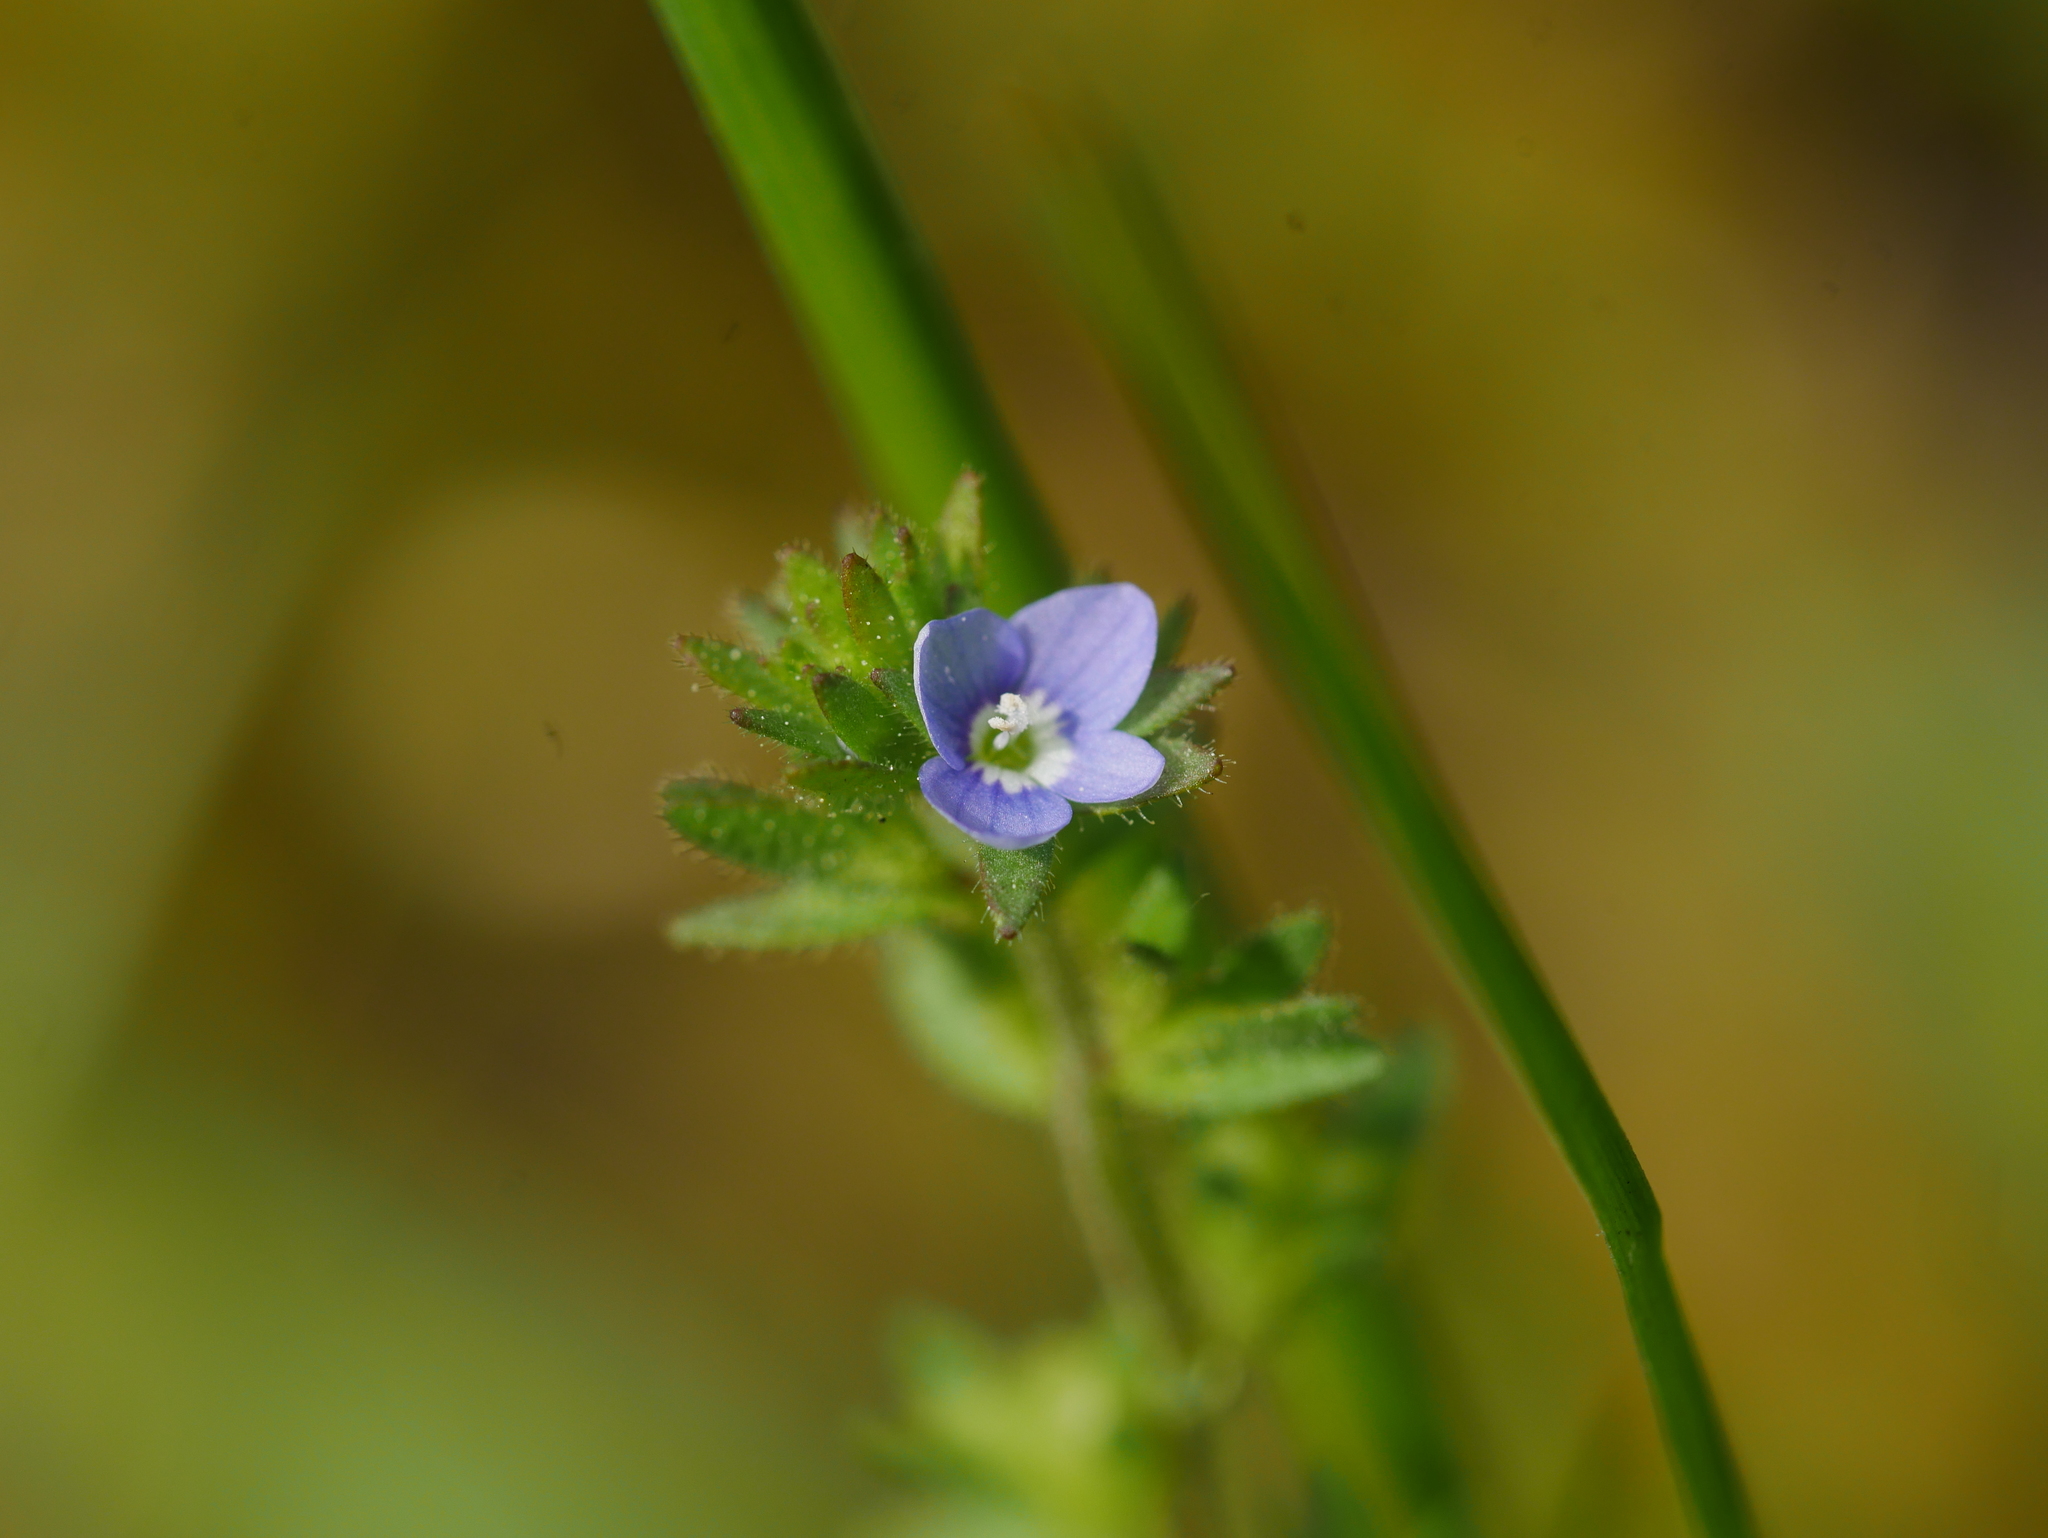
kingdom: Plantae
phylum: Tracheophyta
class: Magnoliopsida
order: Lamiales
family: Plantaginaceae
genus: Veronica
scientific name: Veronica arvensis
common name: Corn speedwell
